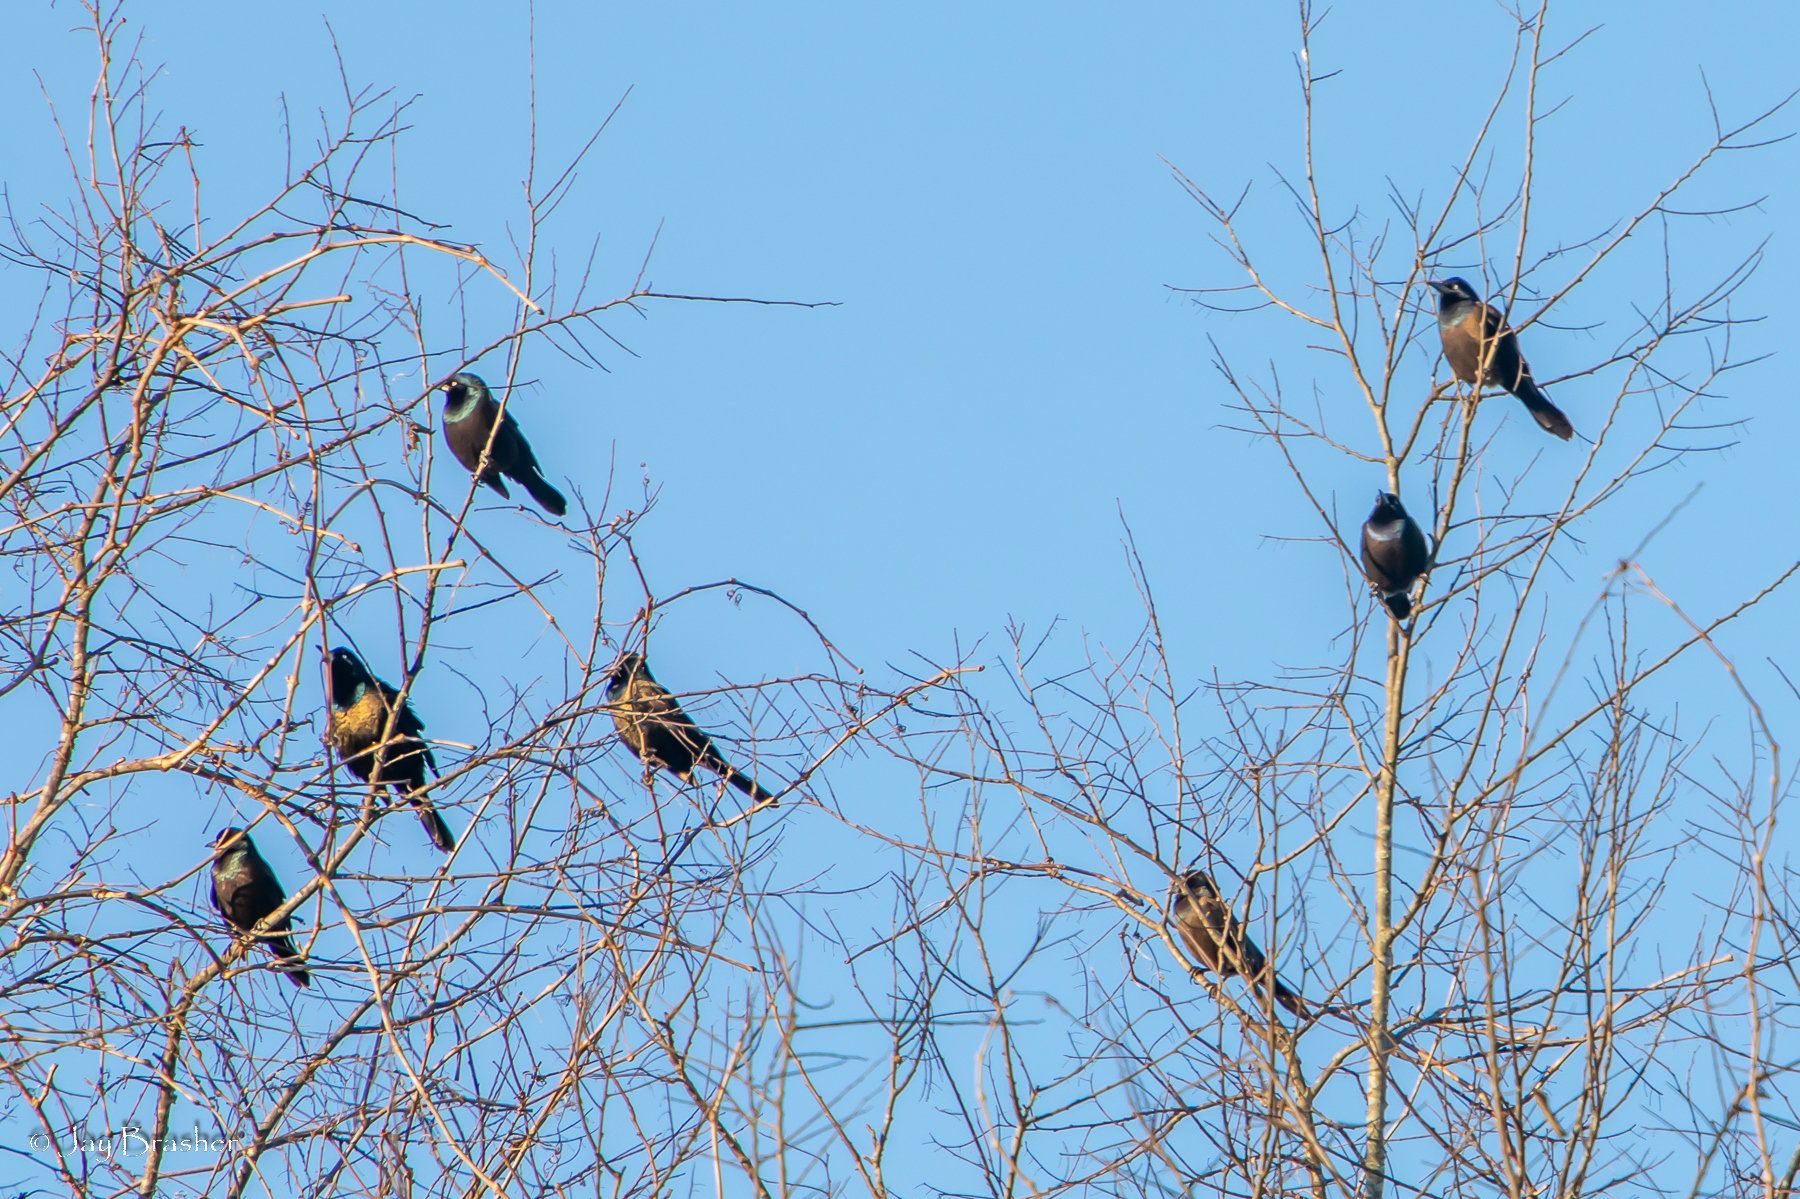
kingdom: Animalia
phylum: Chordata
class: Aves
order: Passeriformes
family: Icteridae
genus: Quiscalus
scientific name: Quiscalus quiscula
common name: Common grackle
